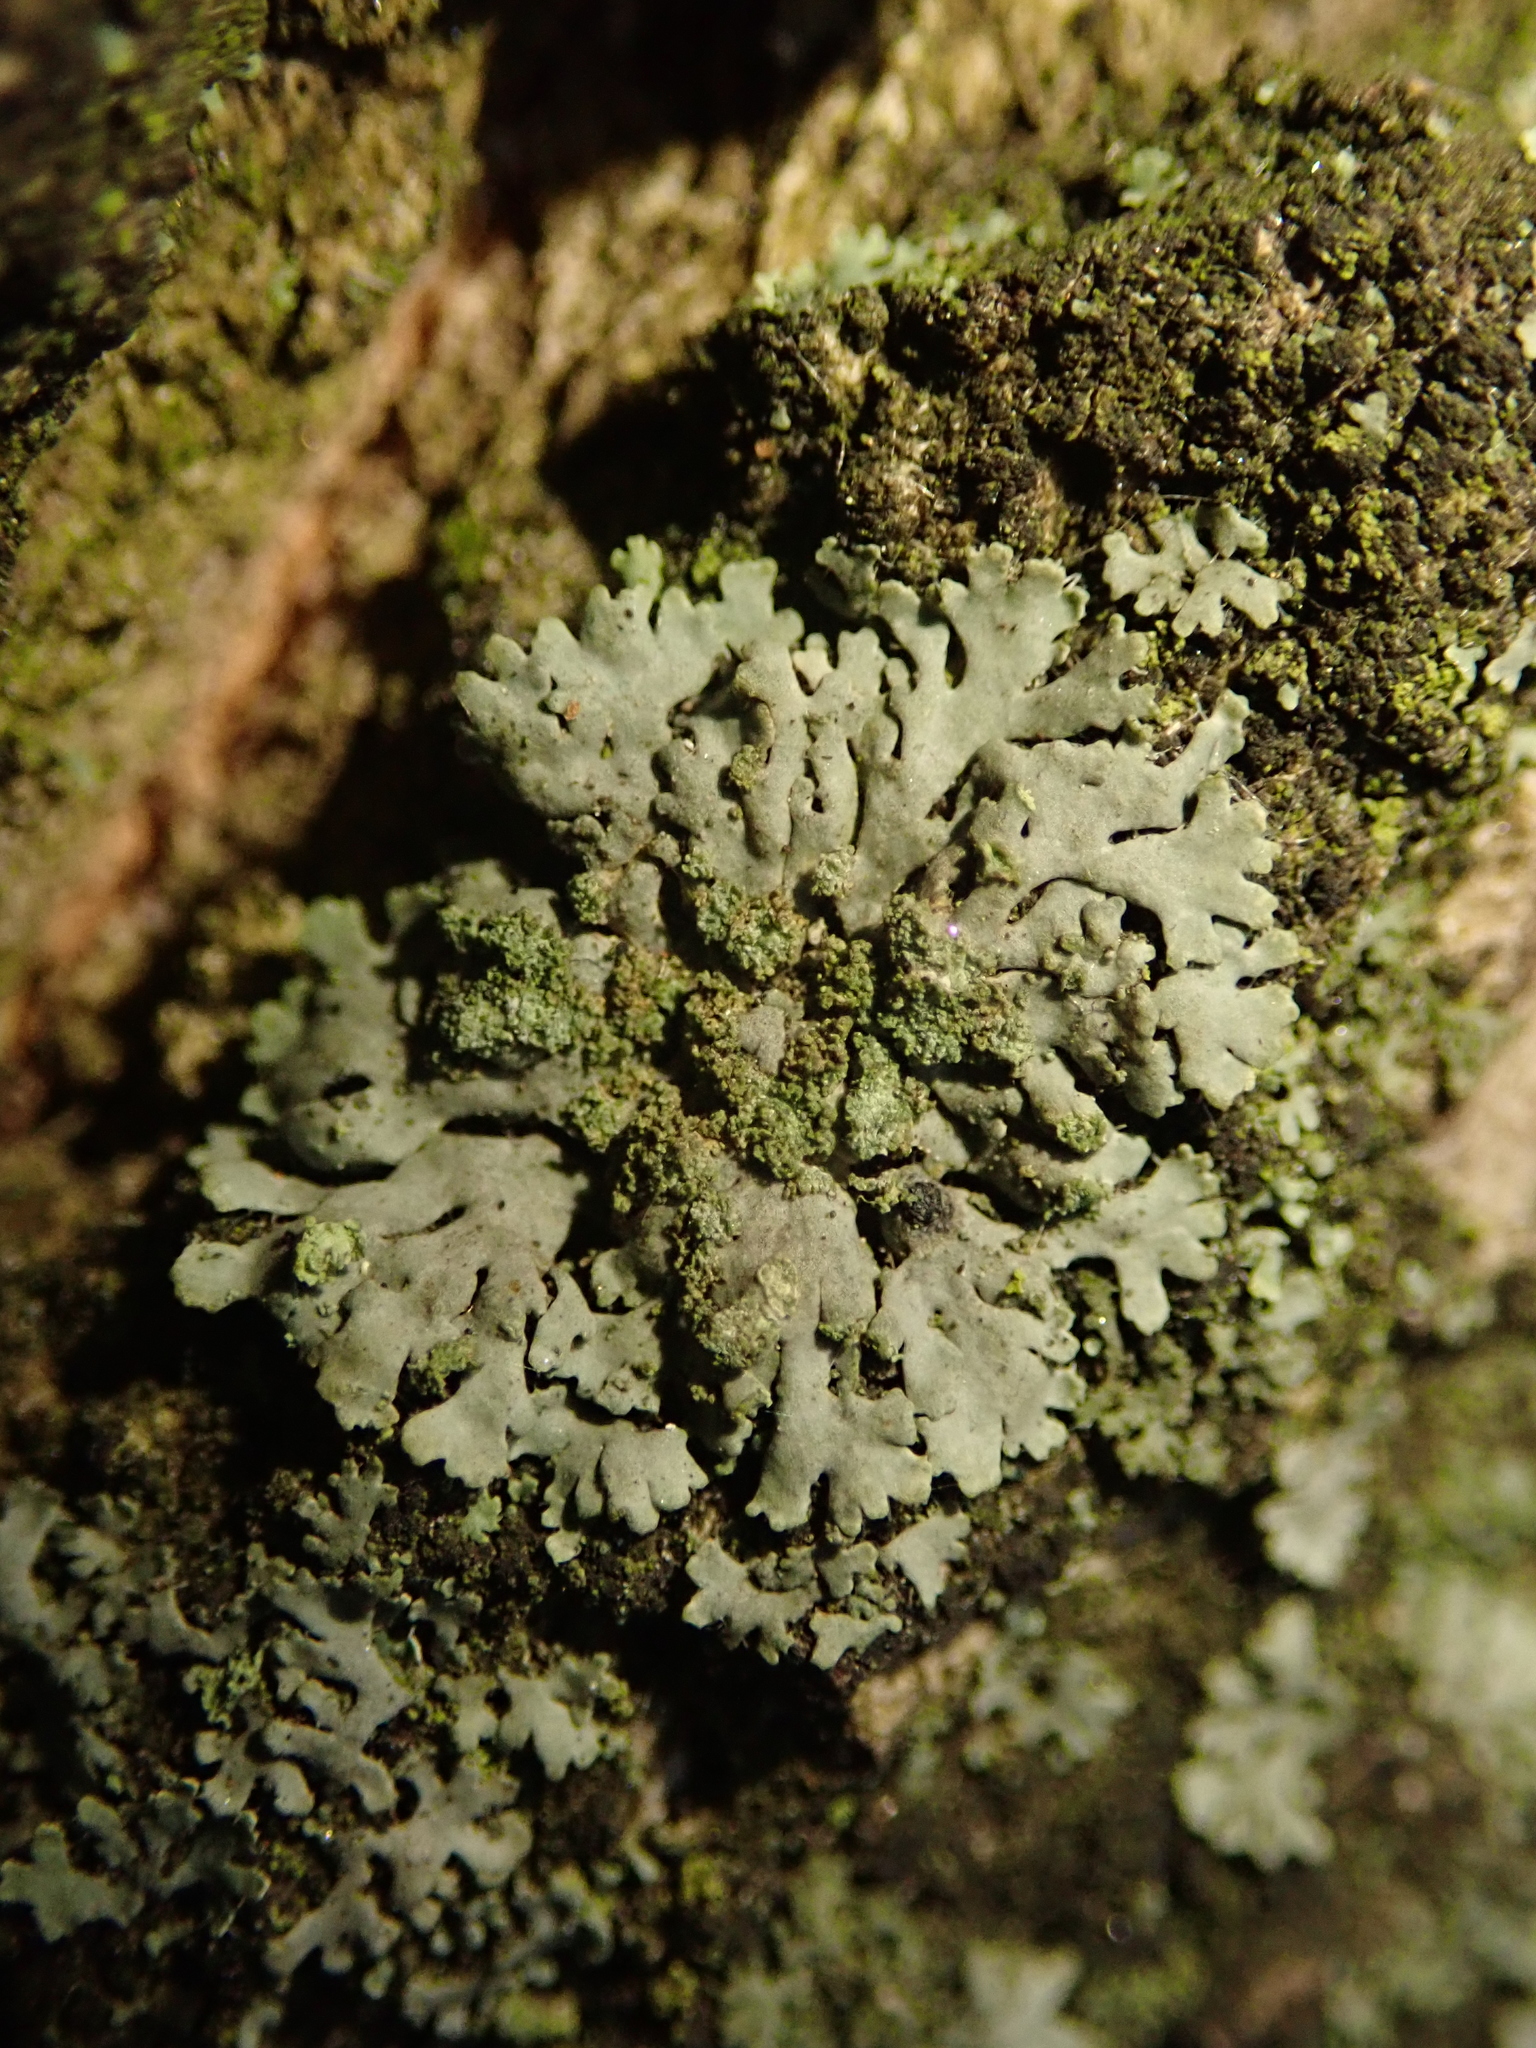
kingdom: Fungi
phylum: Ascomycota
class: Lecanoromycetes
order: Caliciales
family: Physciaceae
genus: Phaeophyscia
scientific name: Phaeophyscia orbicularis
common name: Mealy shadow lichen
